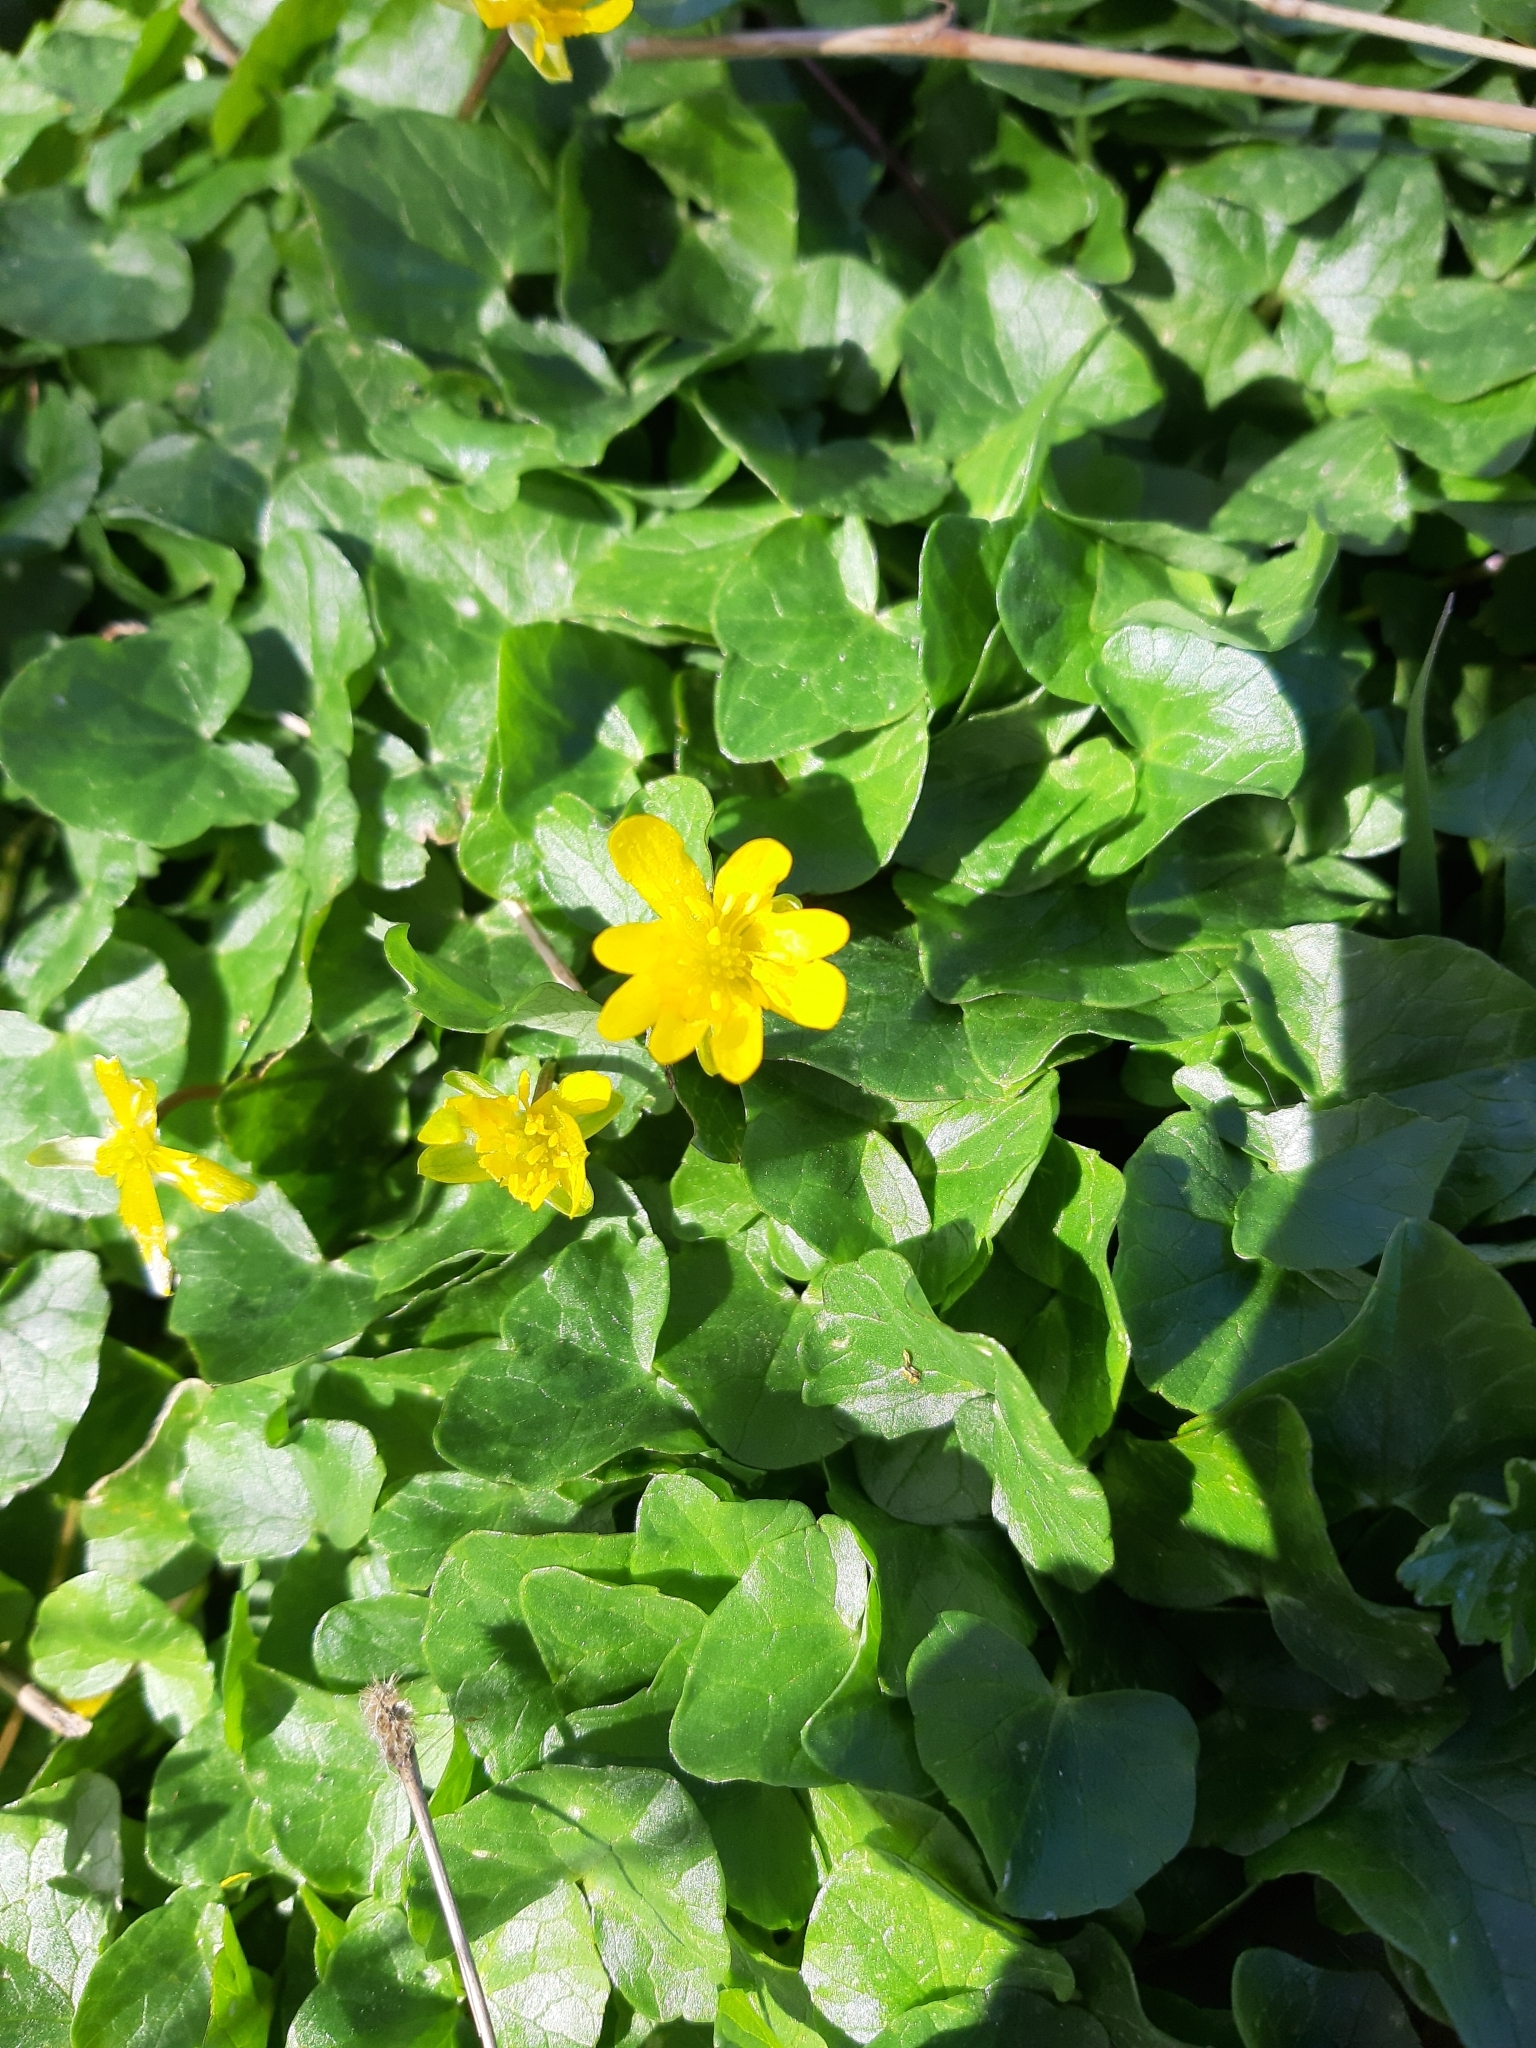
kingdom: Plantae
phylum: Tracheophyta
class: Magnoliopsida
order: Ranunculales
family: Ranunculaceae
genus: Ficaria
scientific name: Ficaria verna
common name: Lesser celandine
